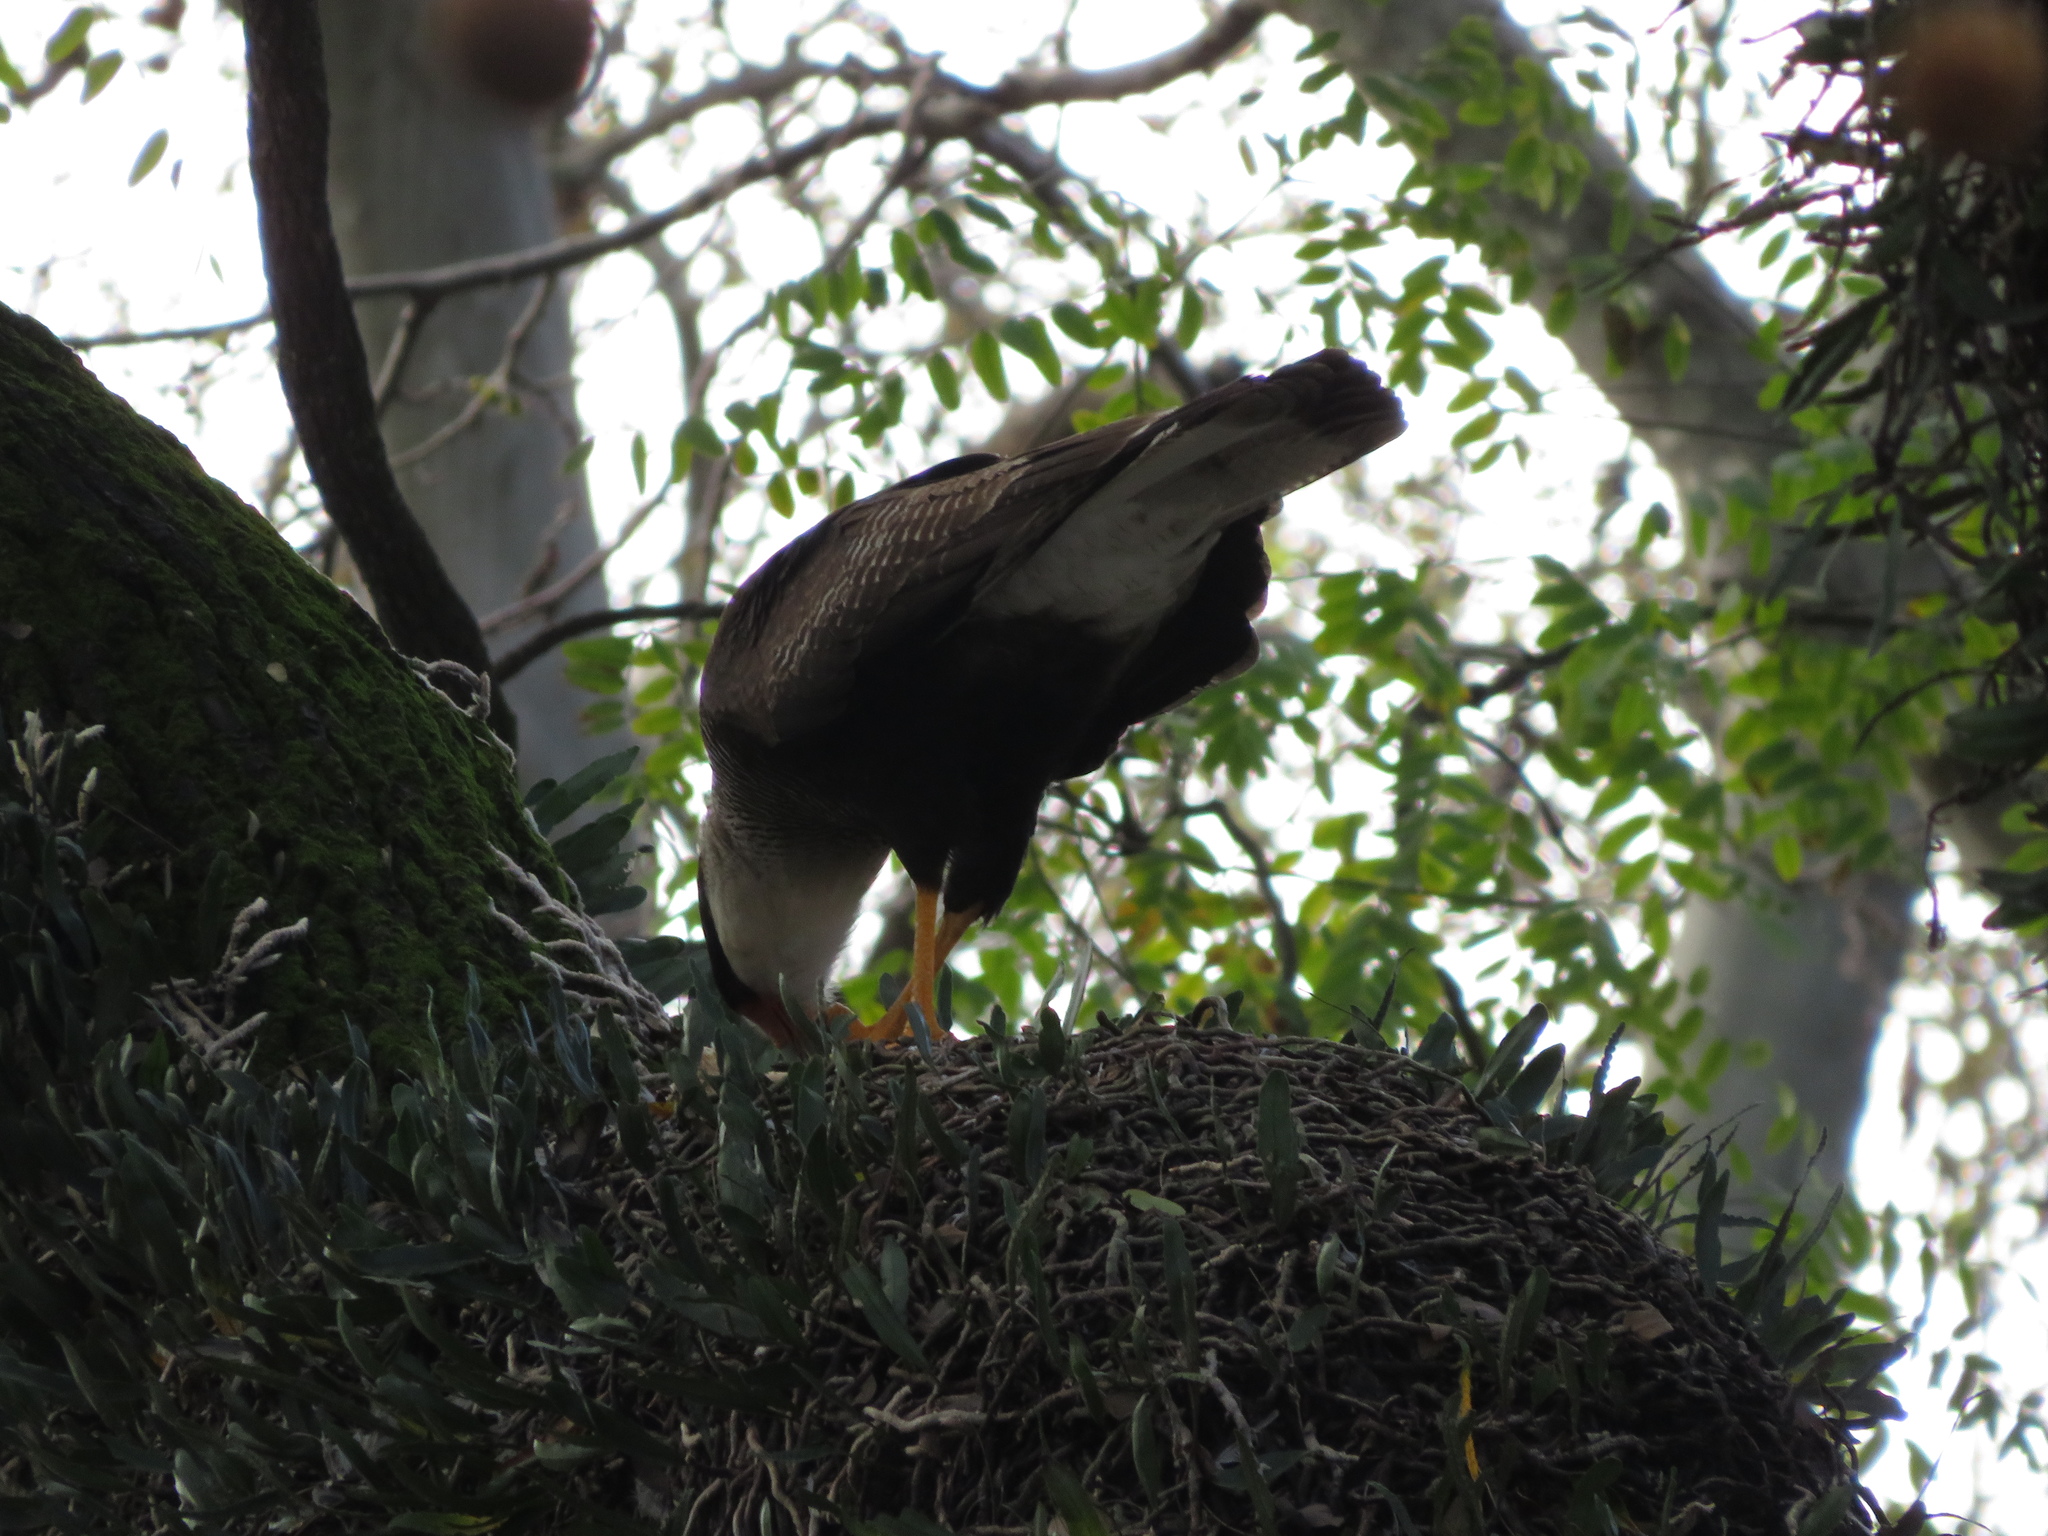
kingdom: Animalia
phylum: Chordata
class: Aves
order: Falconiformes
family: Falconidae
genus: Caracara
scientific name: Caracara plancus
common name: Southern caracara
